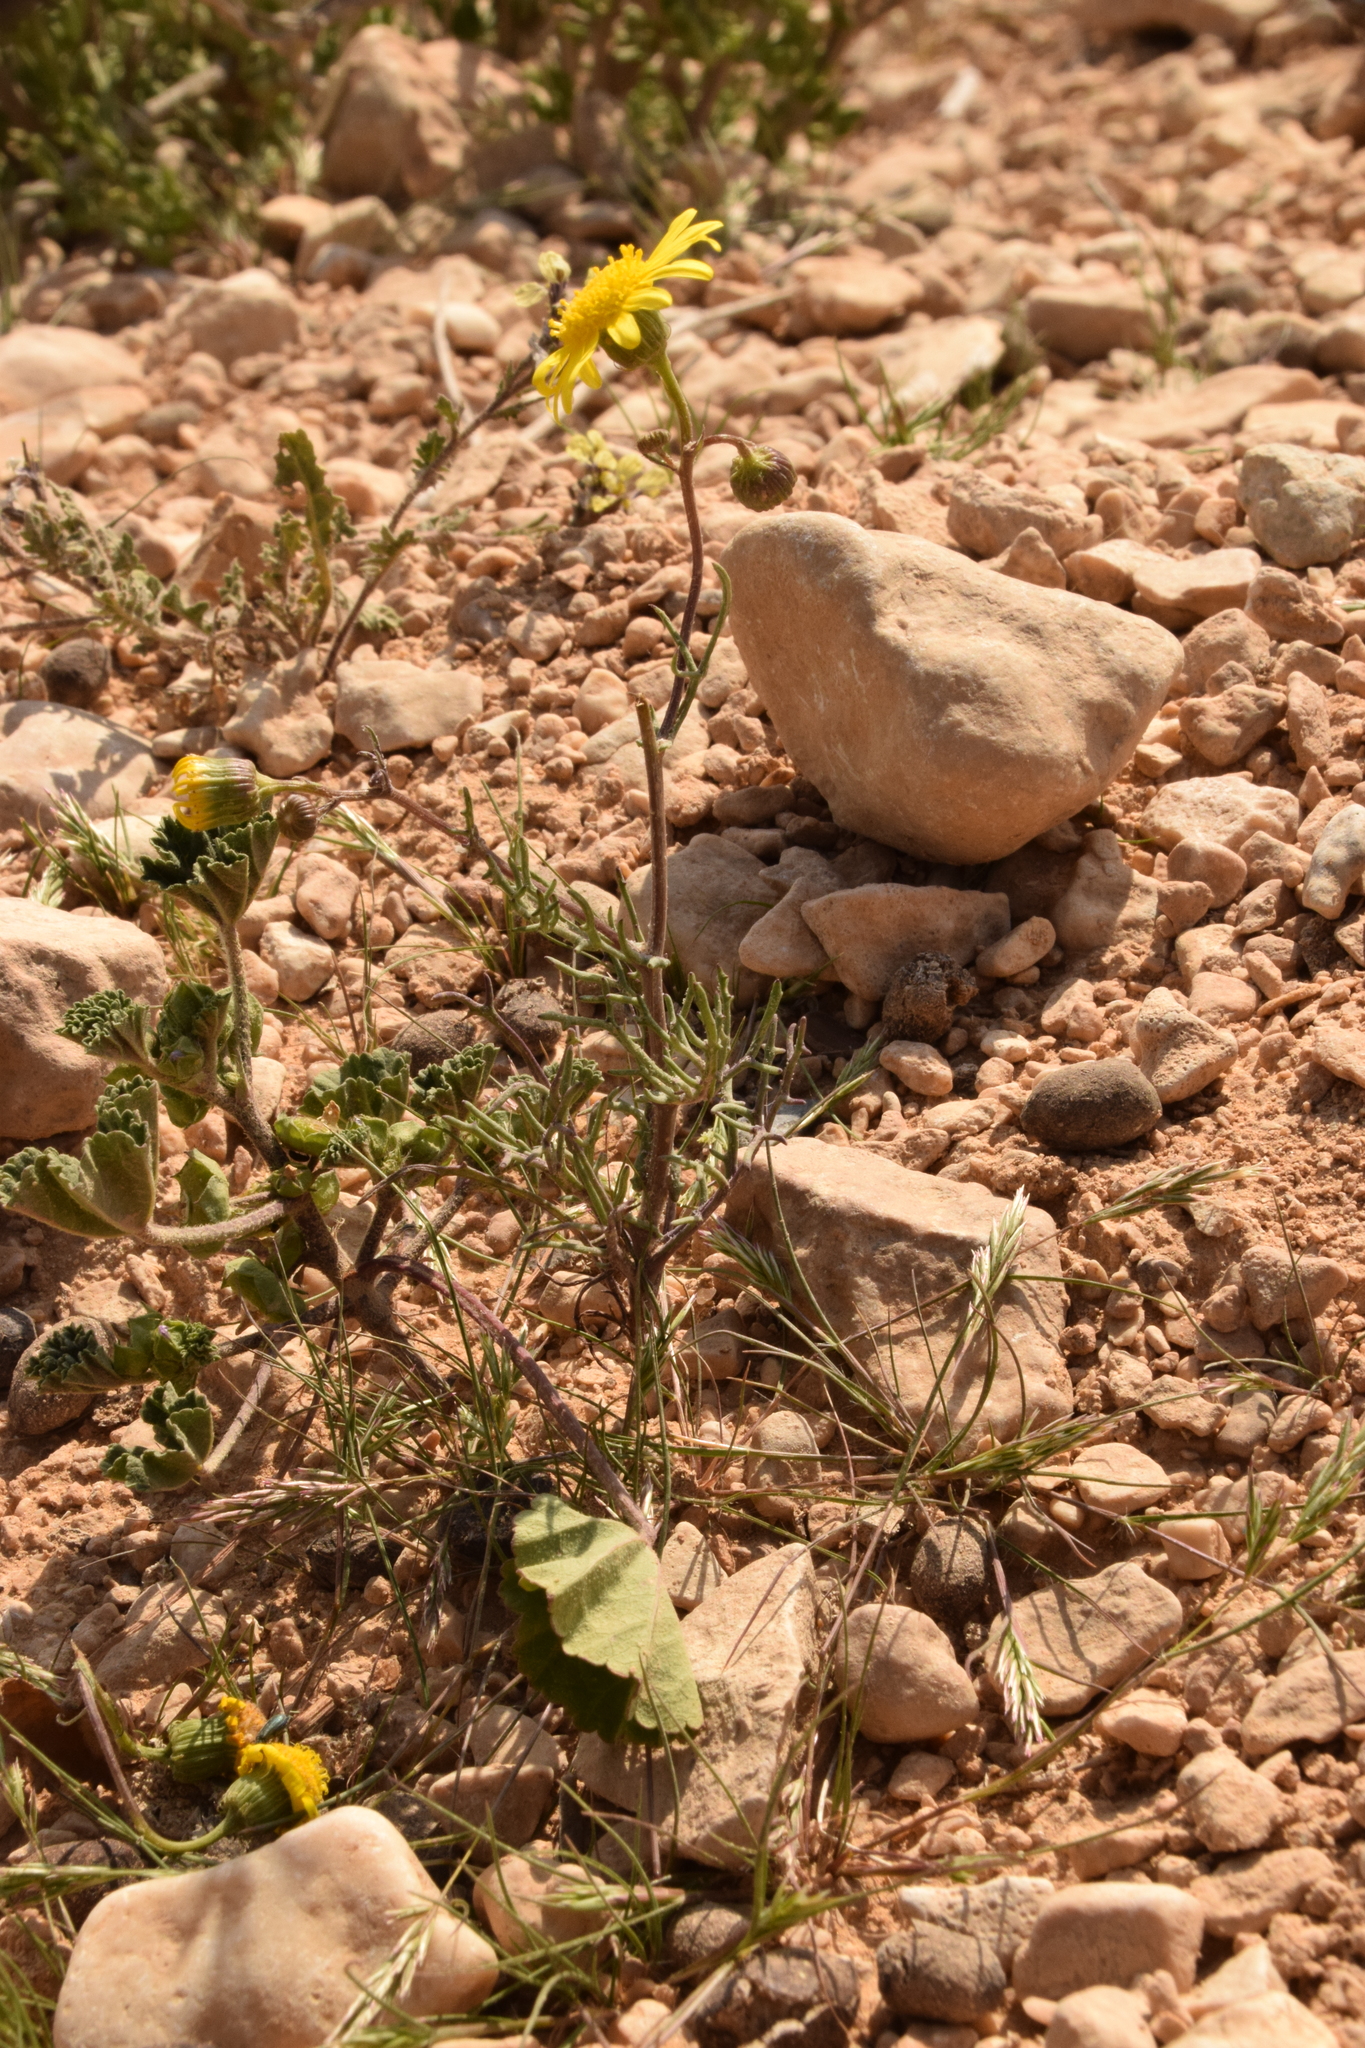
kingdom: Plantae
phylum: Tracheophyta
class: Magnoliopsida
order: Asterales
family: Asteraceae
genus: Senecio
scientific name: Senecio glaucus
